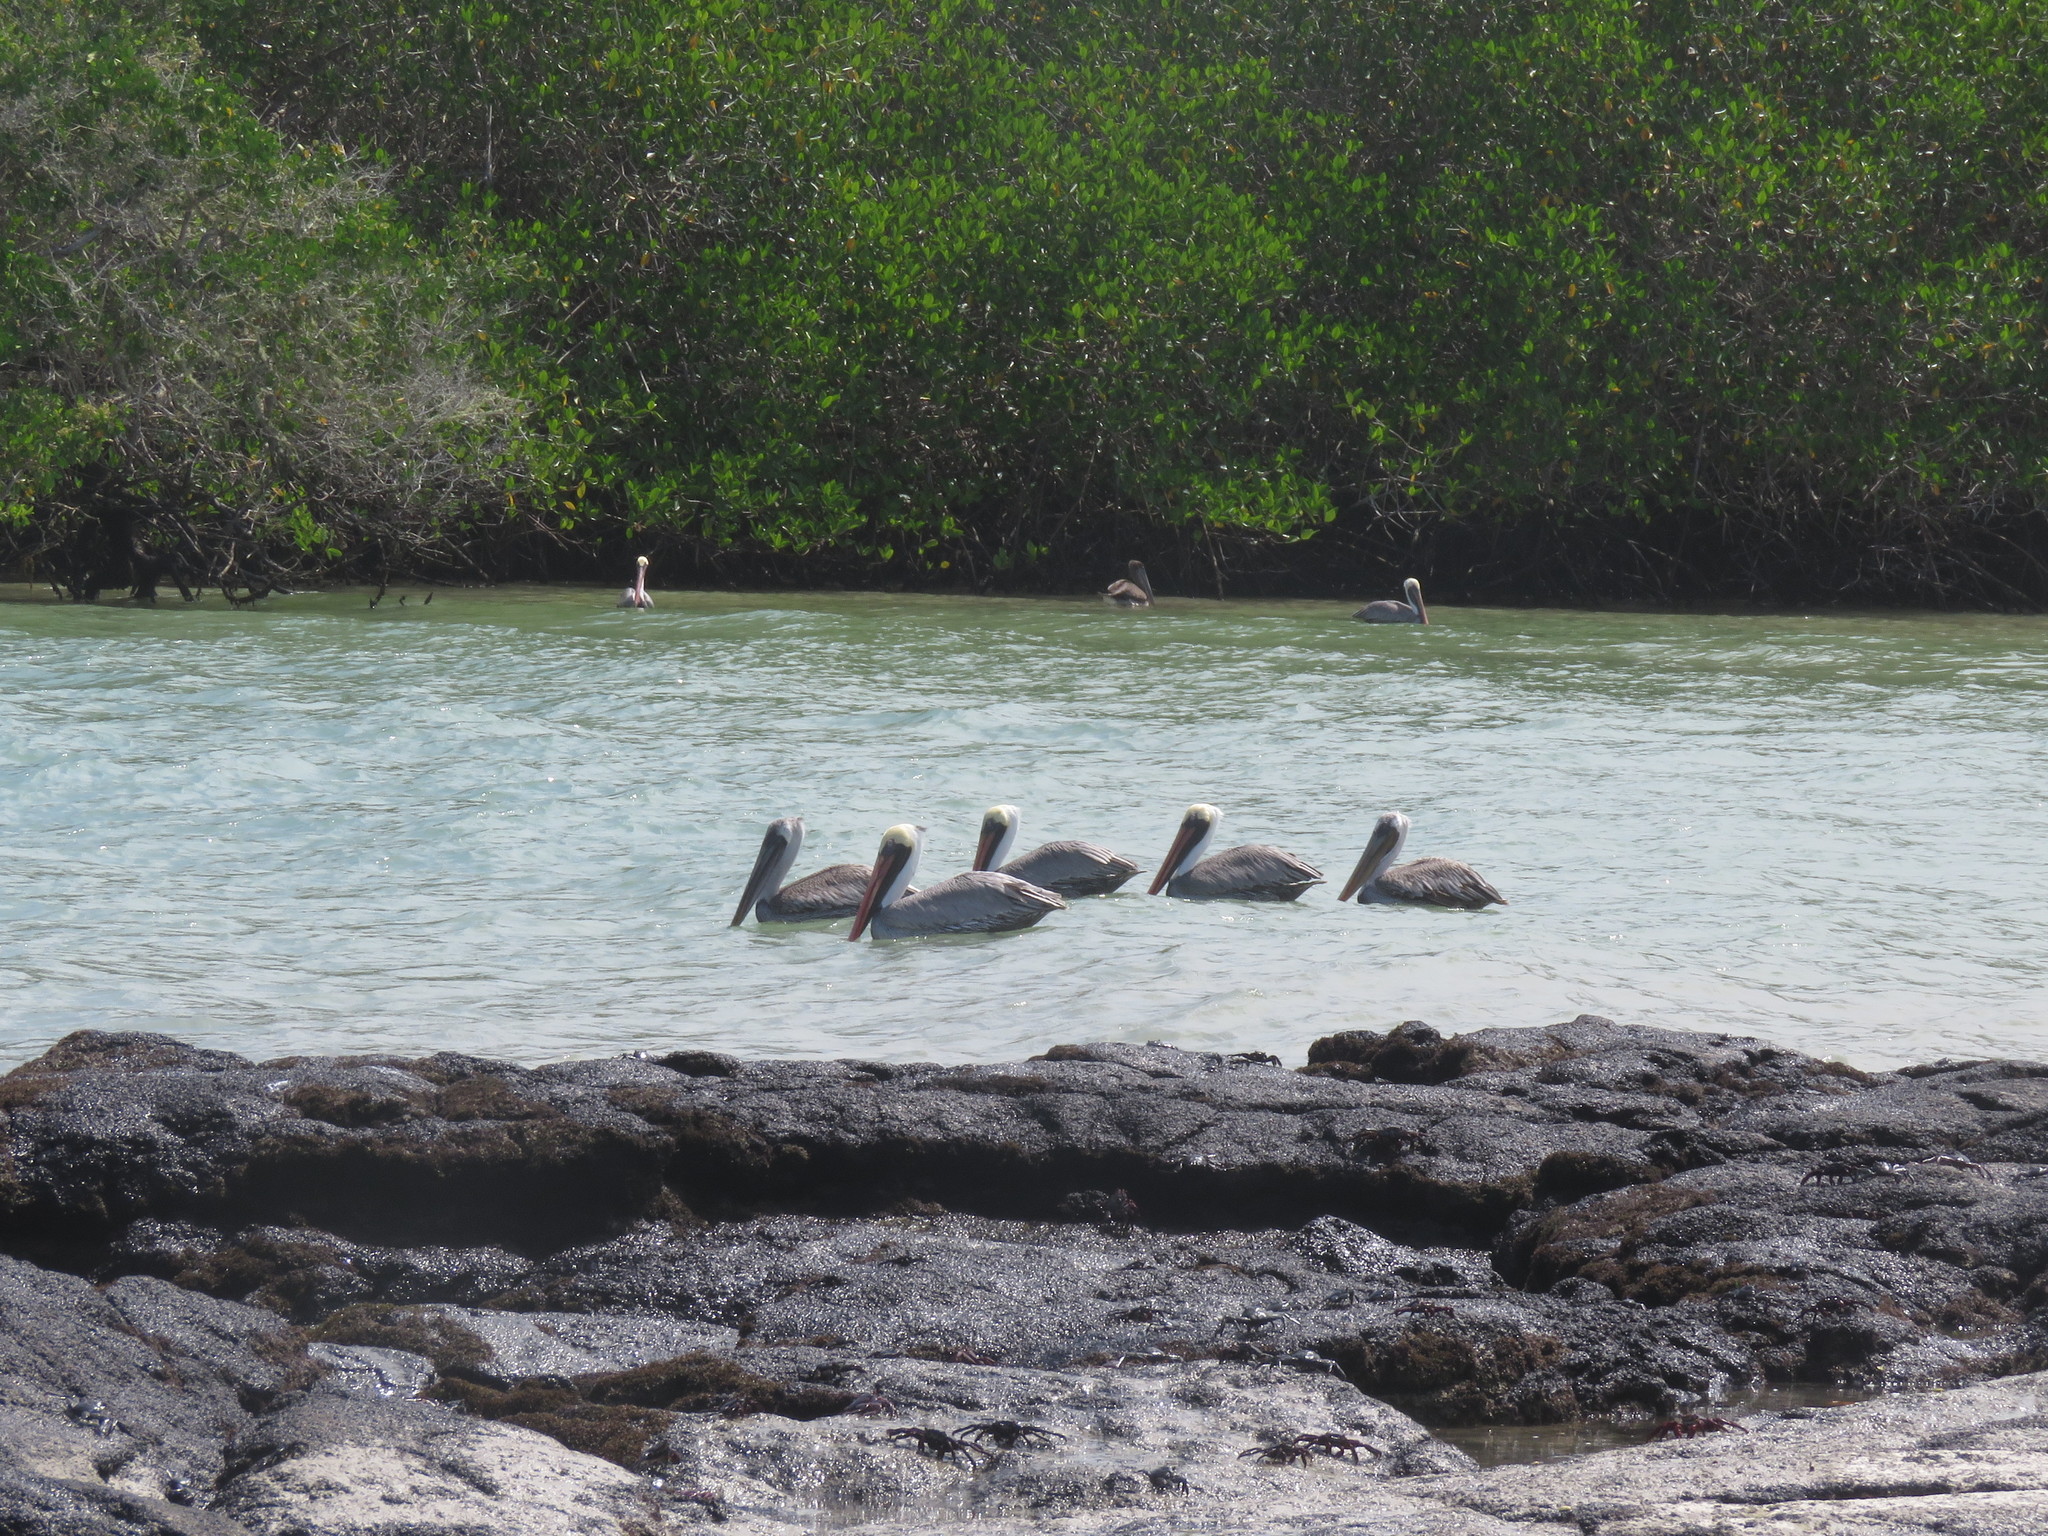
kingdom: Animalia
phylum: Chordata
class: Aves
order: Pelecaniformes
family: Pelecanidae
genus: Pelecanus
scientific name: Pelecanus occidentalis
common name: Brown pelican
